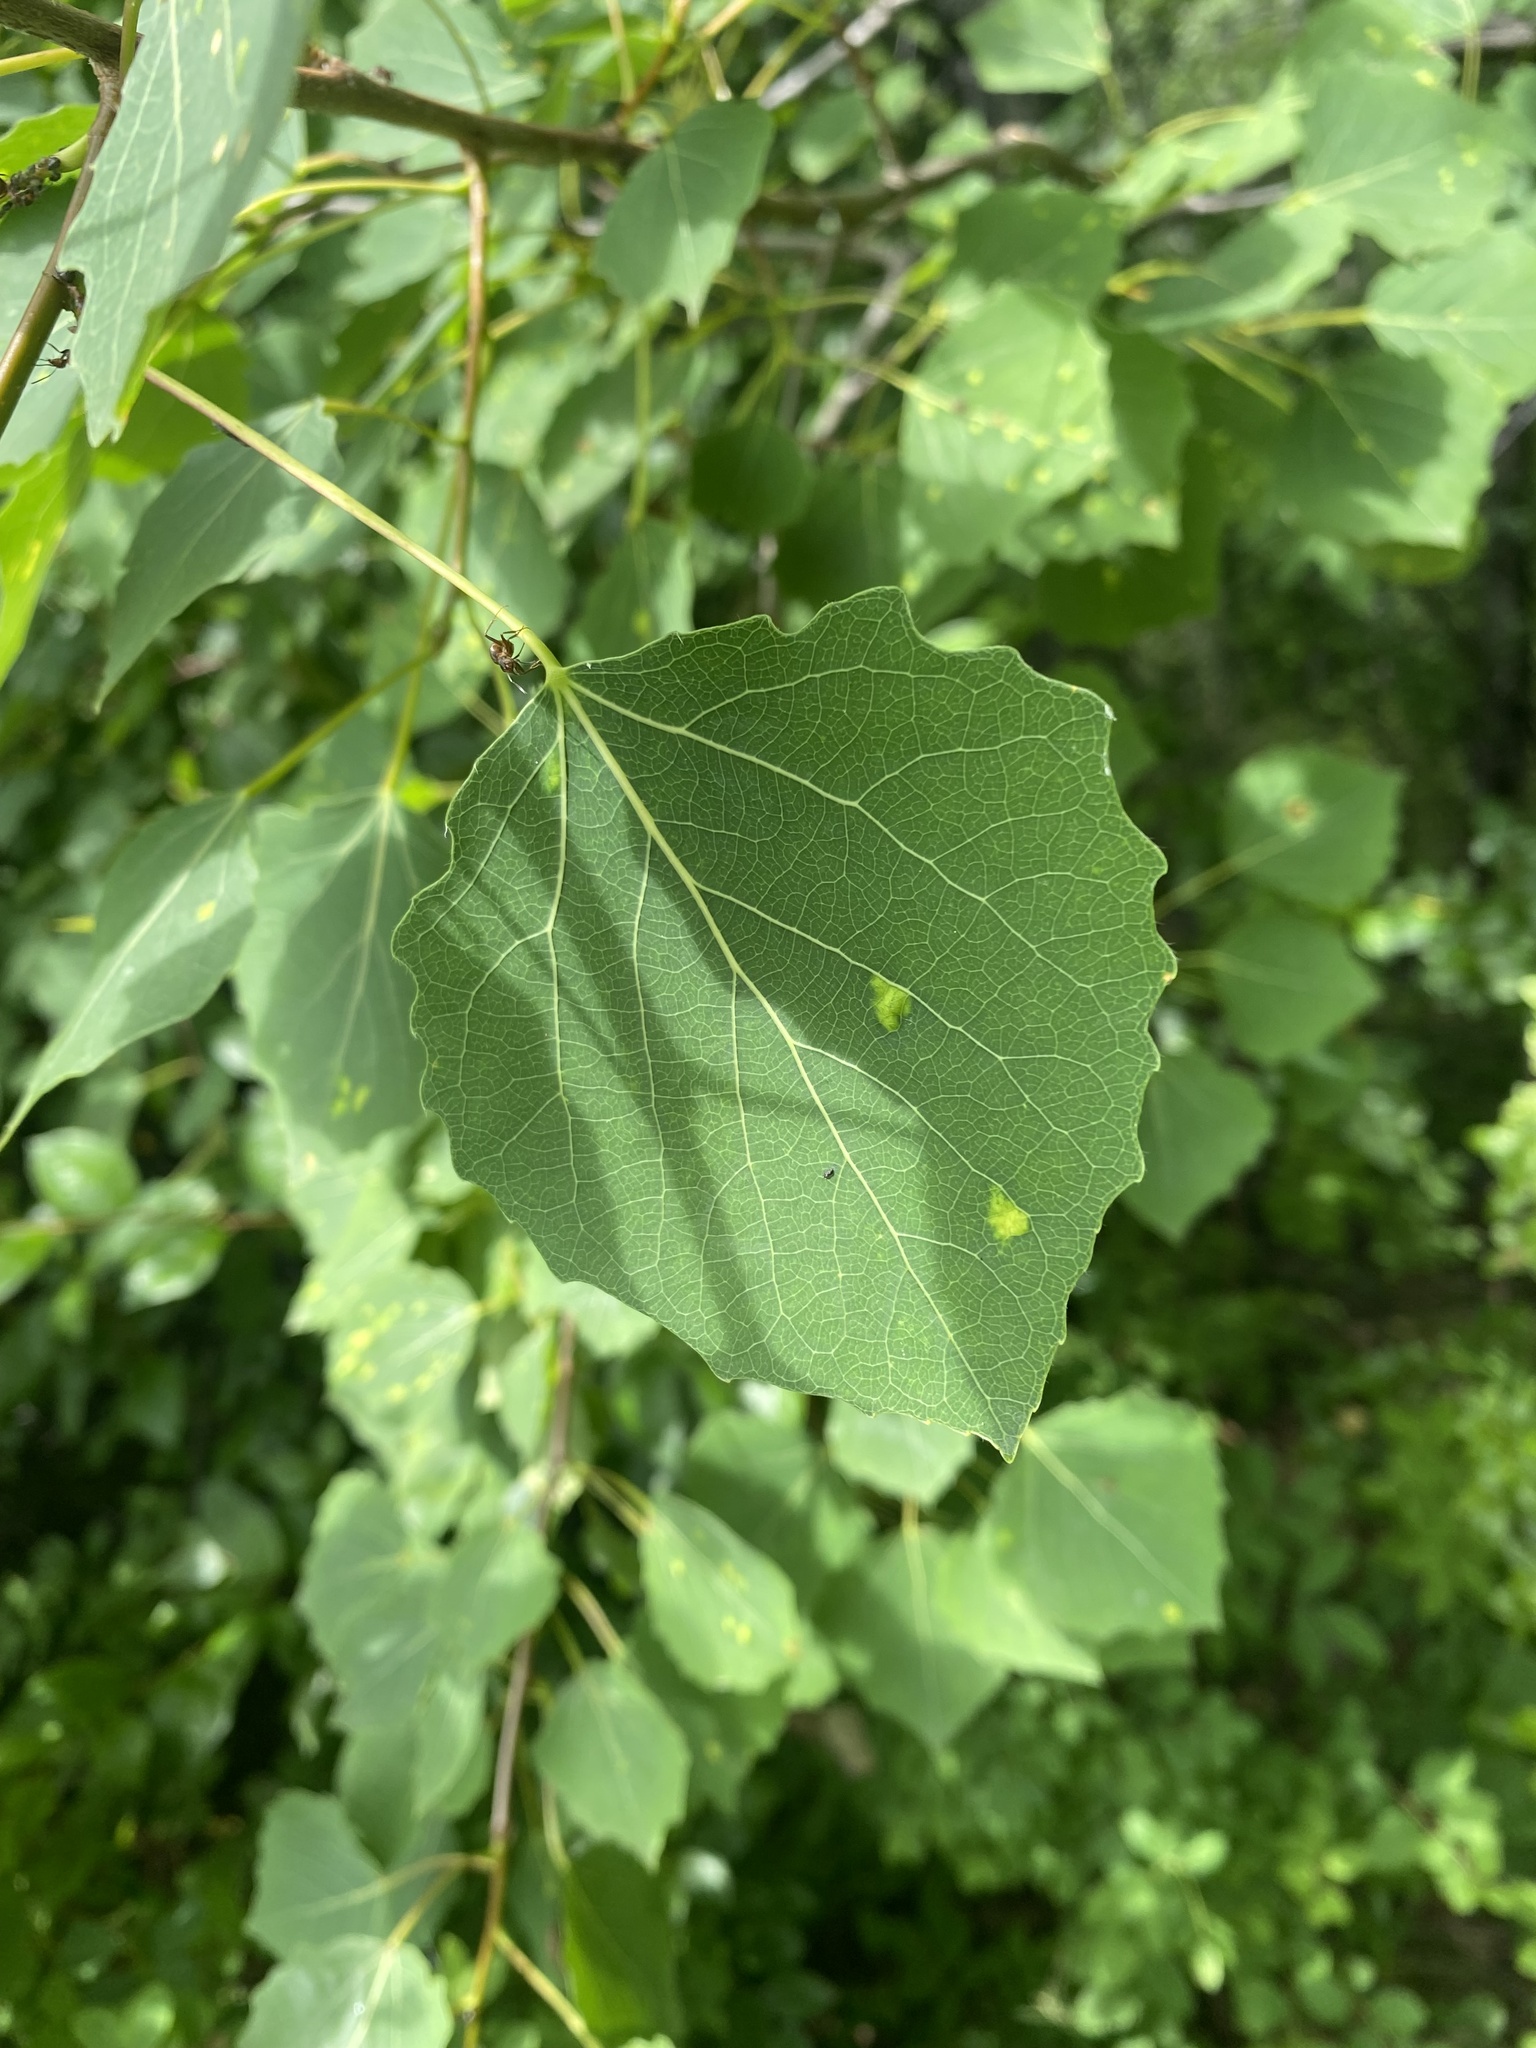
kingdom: Plantae
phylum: Tracheophyta
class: Magnoliopsida
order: Malpighiales
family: Salicaceae
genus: Populus
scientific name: Populus tremula
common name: European aspen
